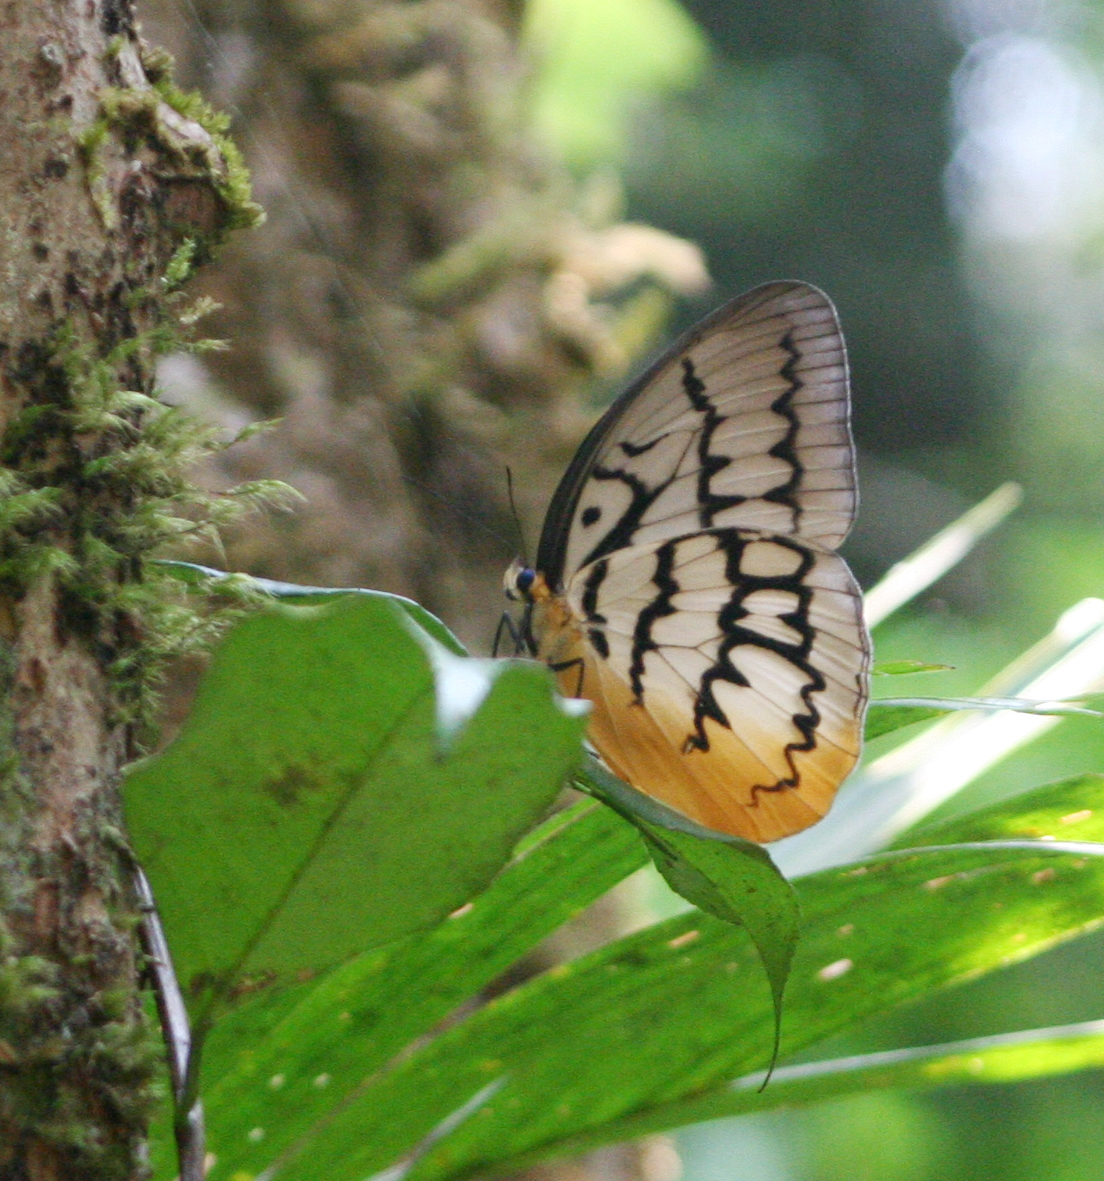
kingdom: Animalia
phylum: Arthropoda
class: Insecta
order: Lepidoptera
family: Nymphalidae
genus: Faunis
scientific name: Faunis Melanocyma faunula
